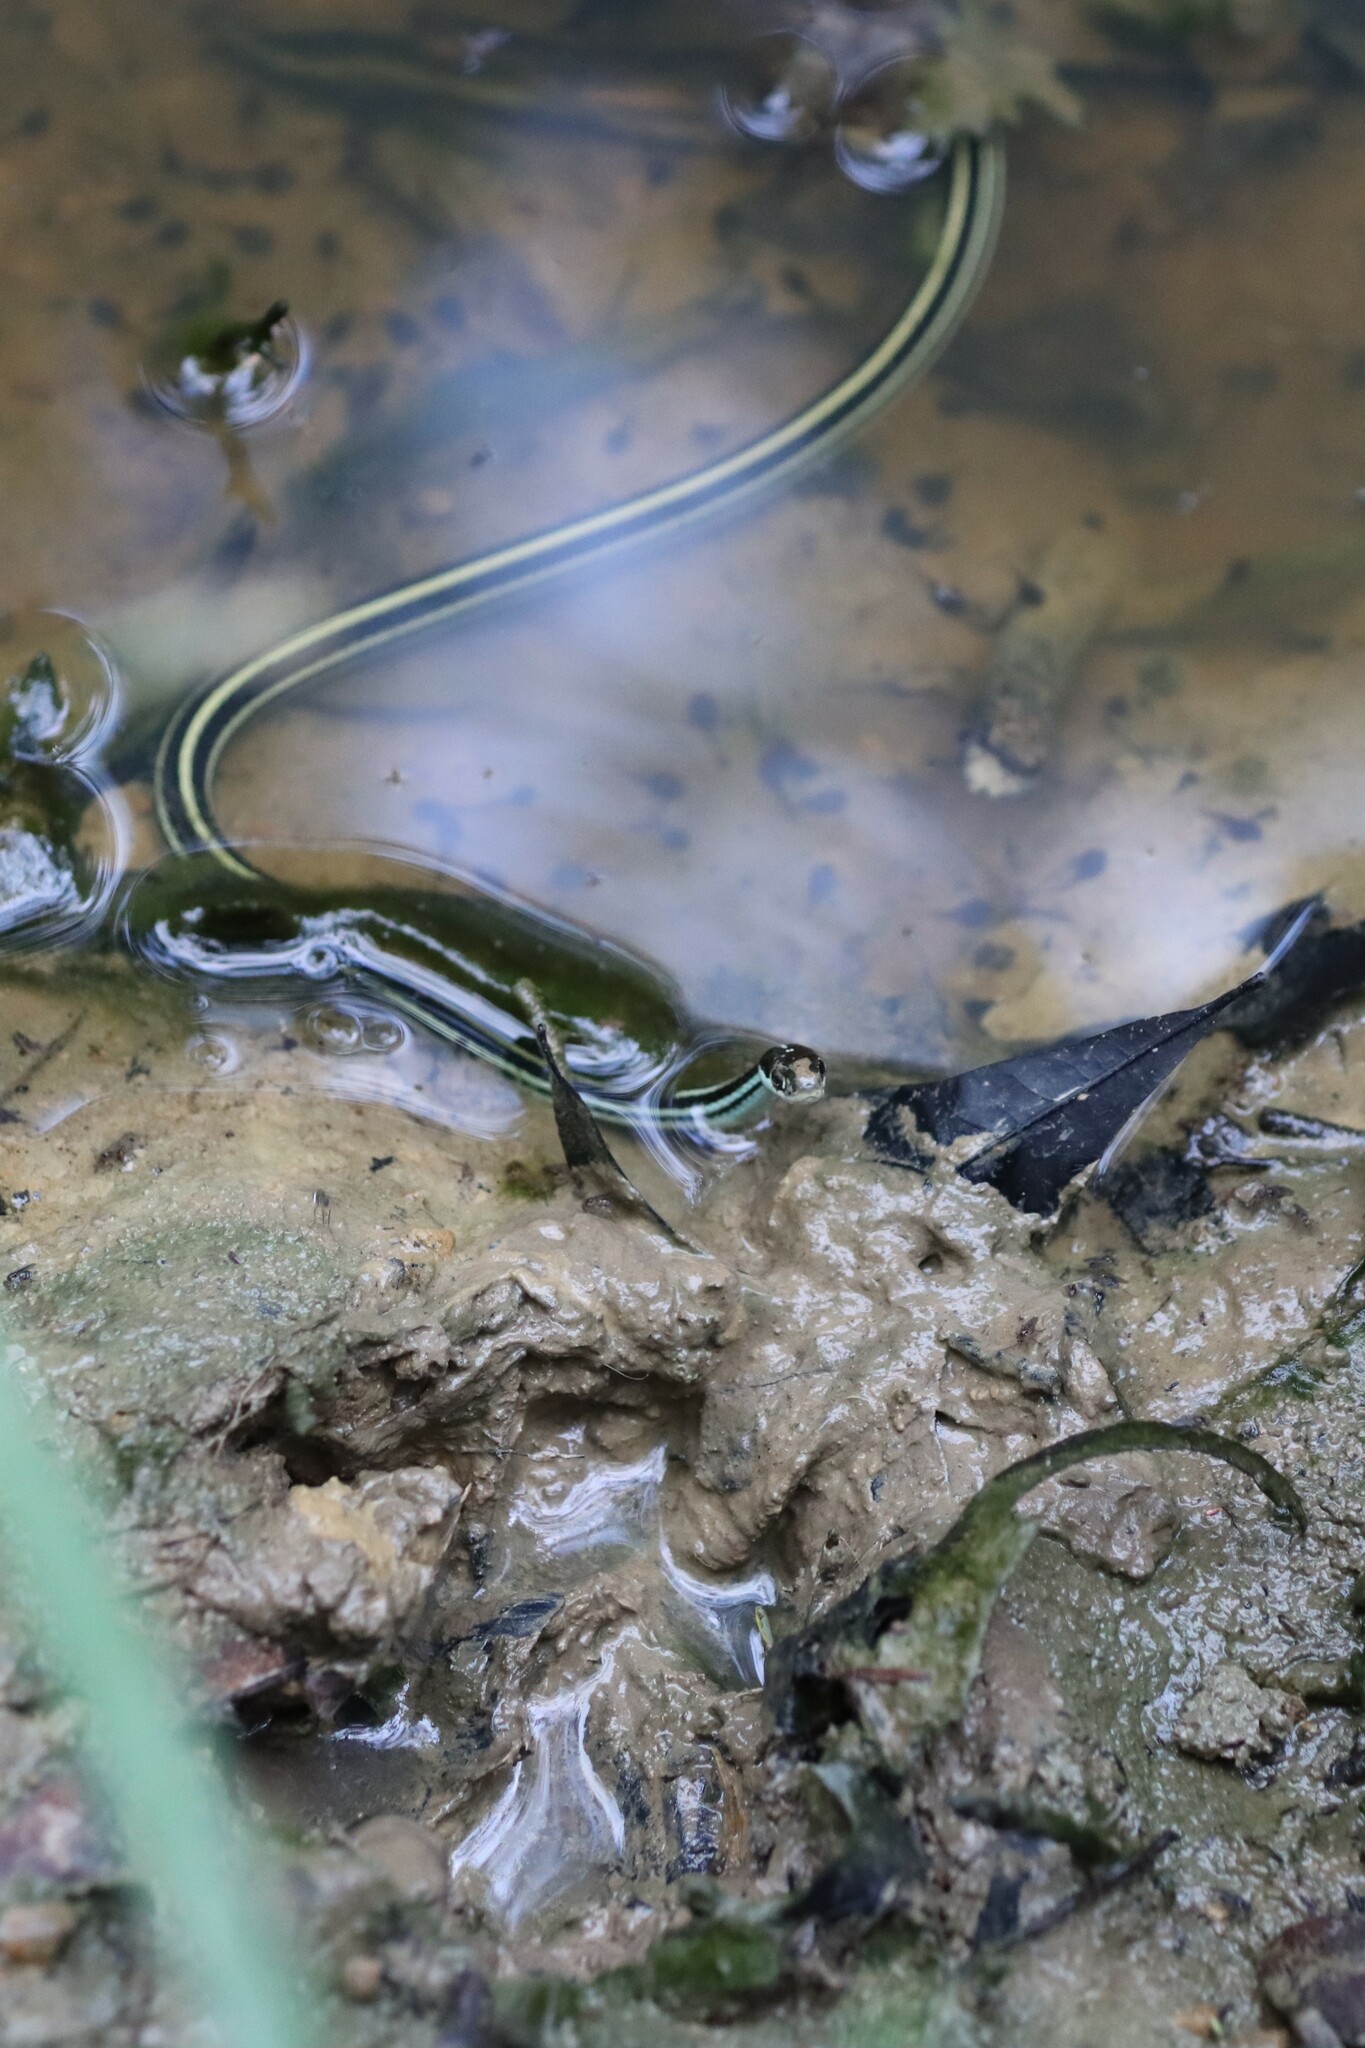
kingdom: Animalia
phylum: Chordata
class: Squamata
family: Colubridae
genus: Thamnophis
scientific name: Thamnophis proximus
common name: Western ribbon snake
